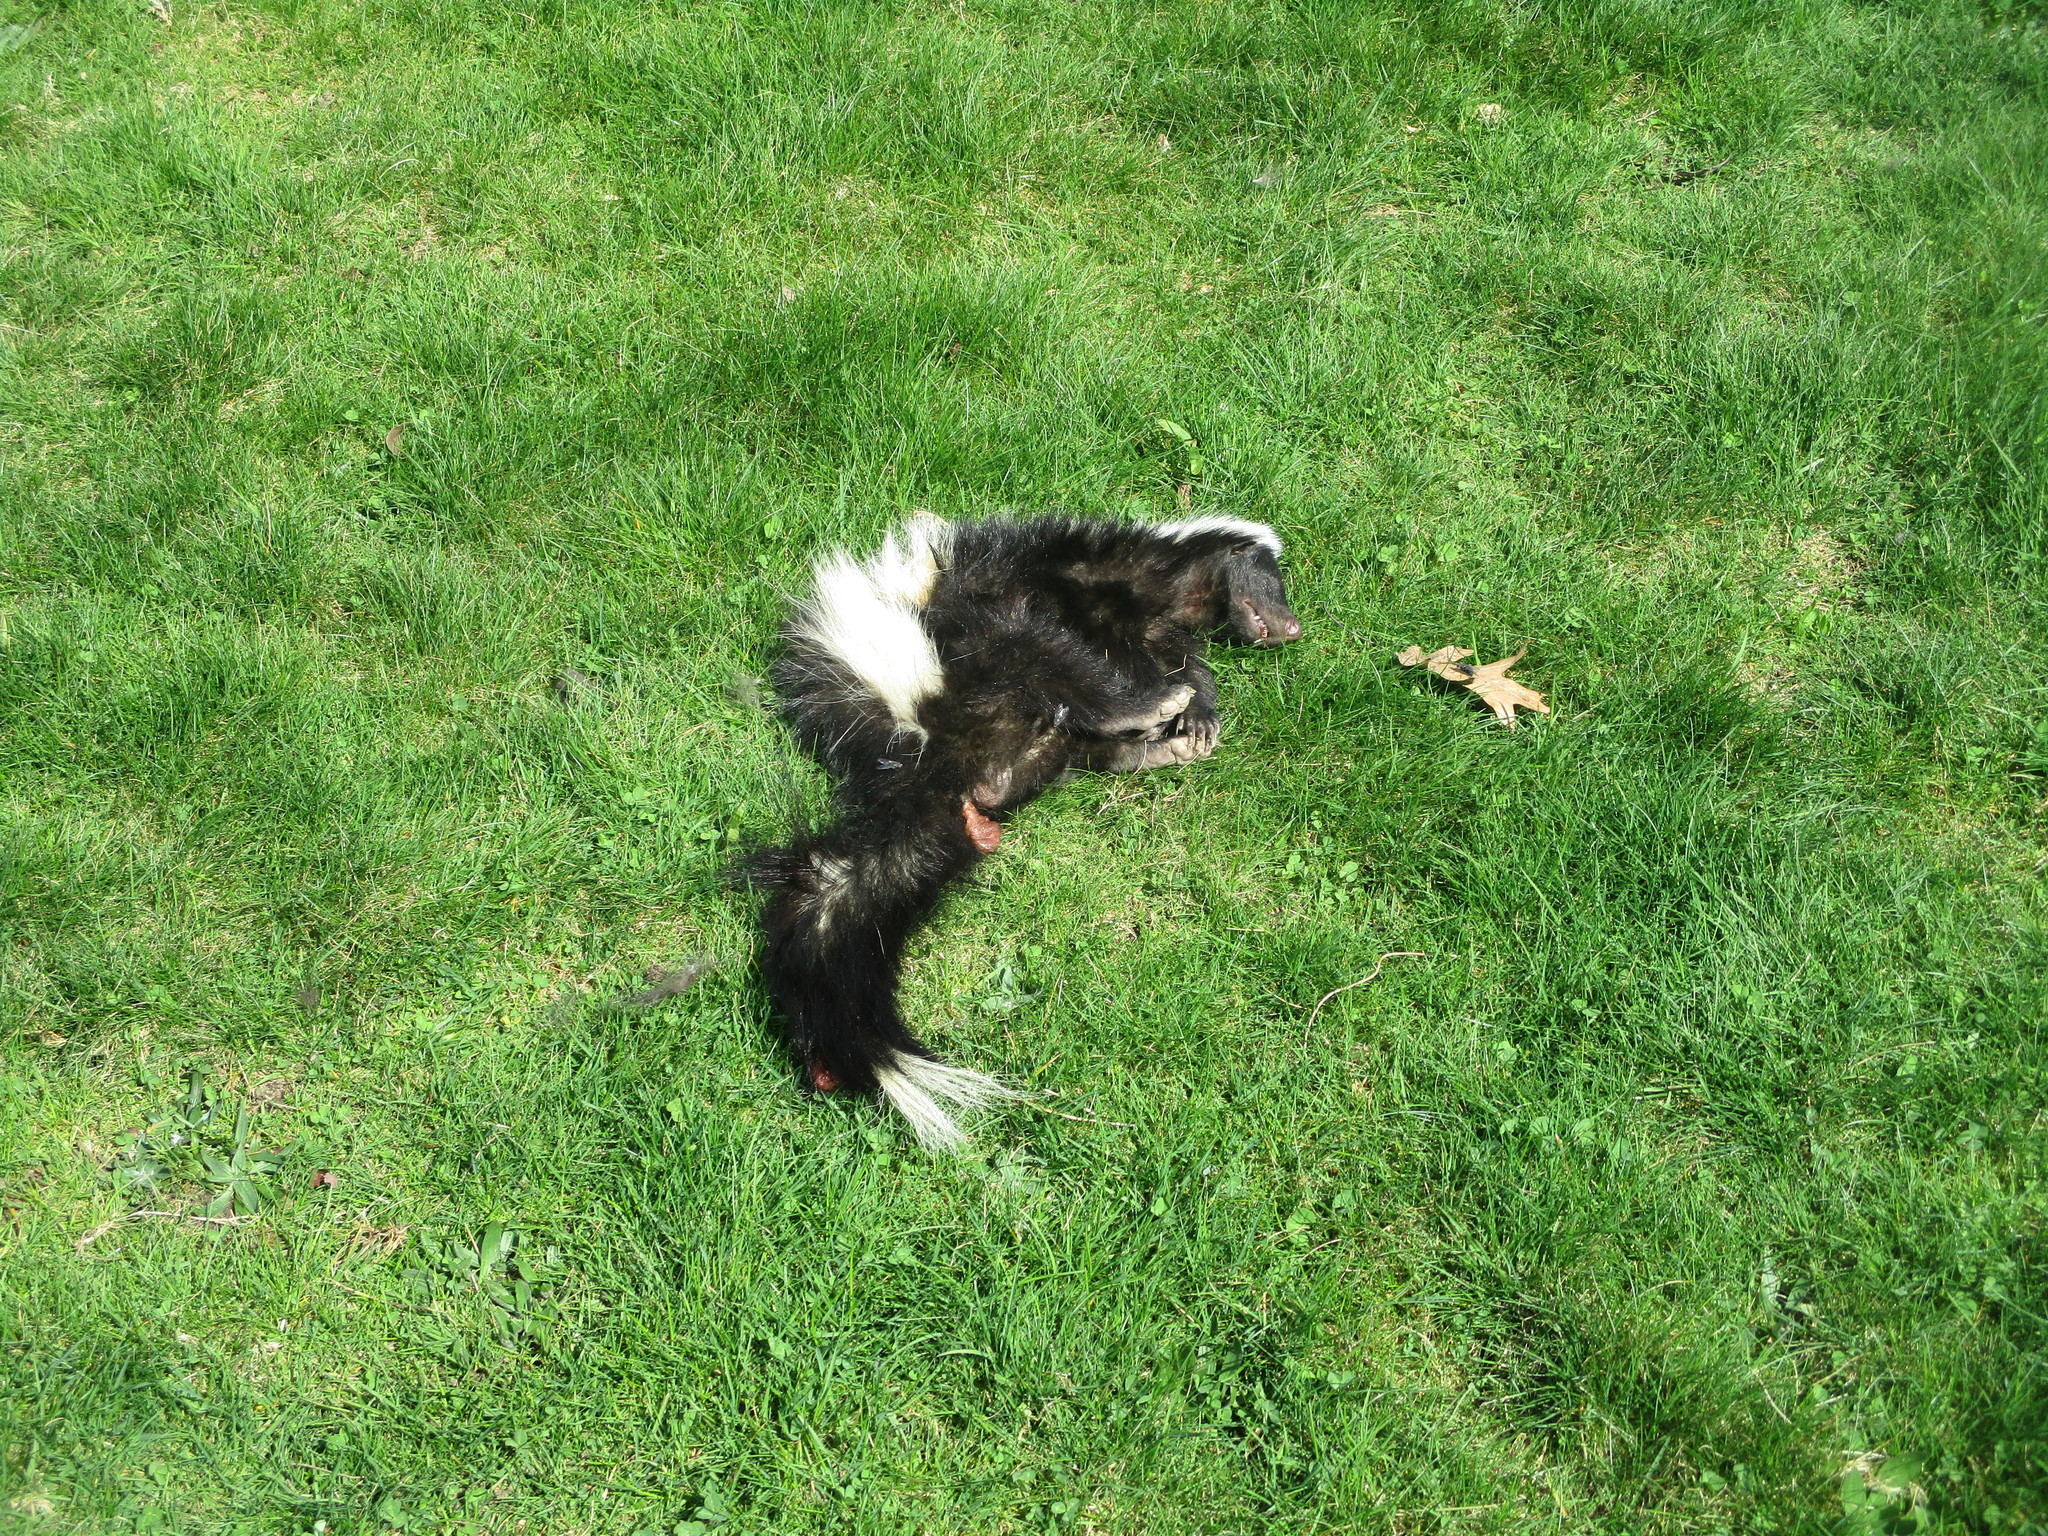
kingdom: Animalia
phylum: Chordata
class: Mammalia
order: Carnivora
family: Mephitidae
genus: Mephitis
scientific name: Mephitis mephitis
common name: Striped skunk
